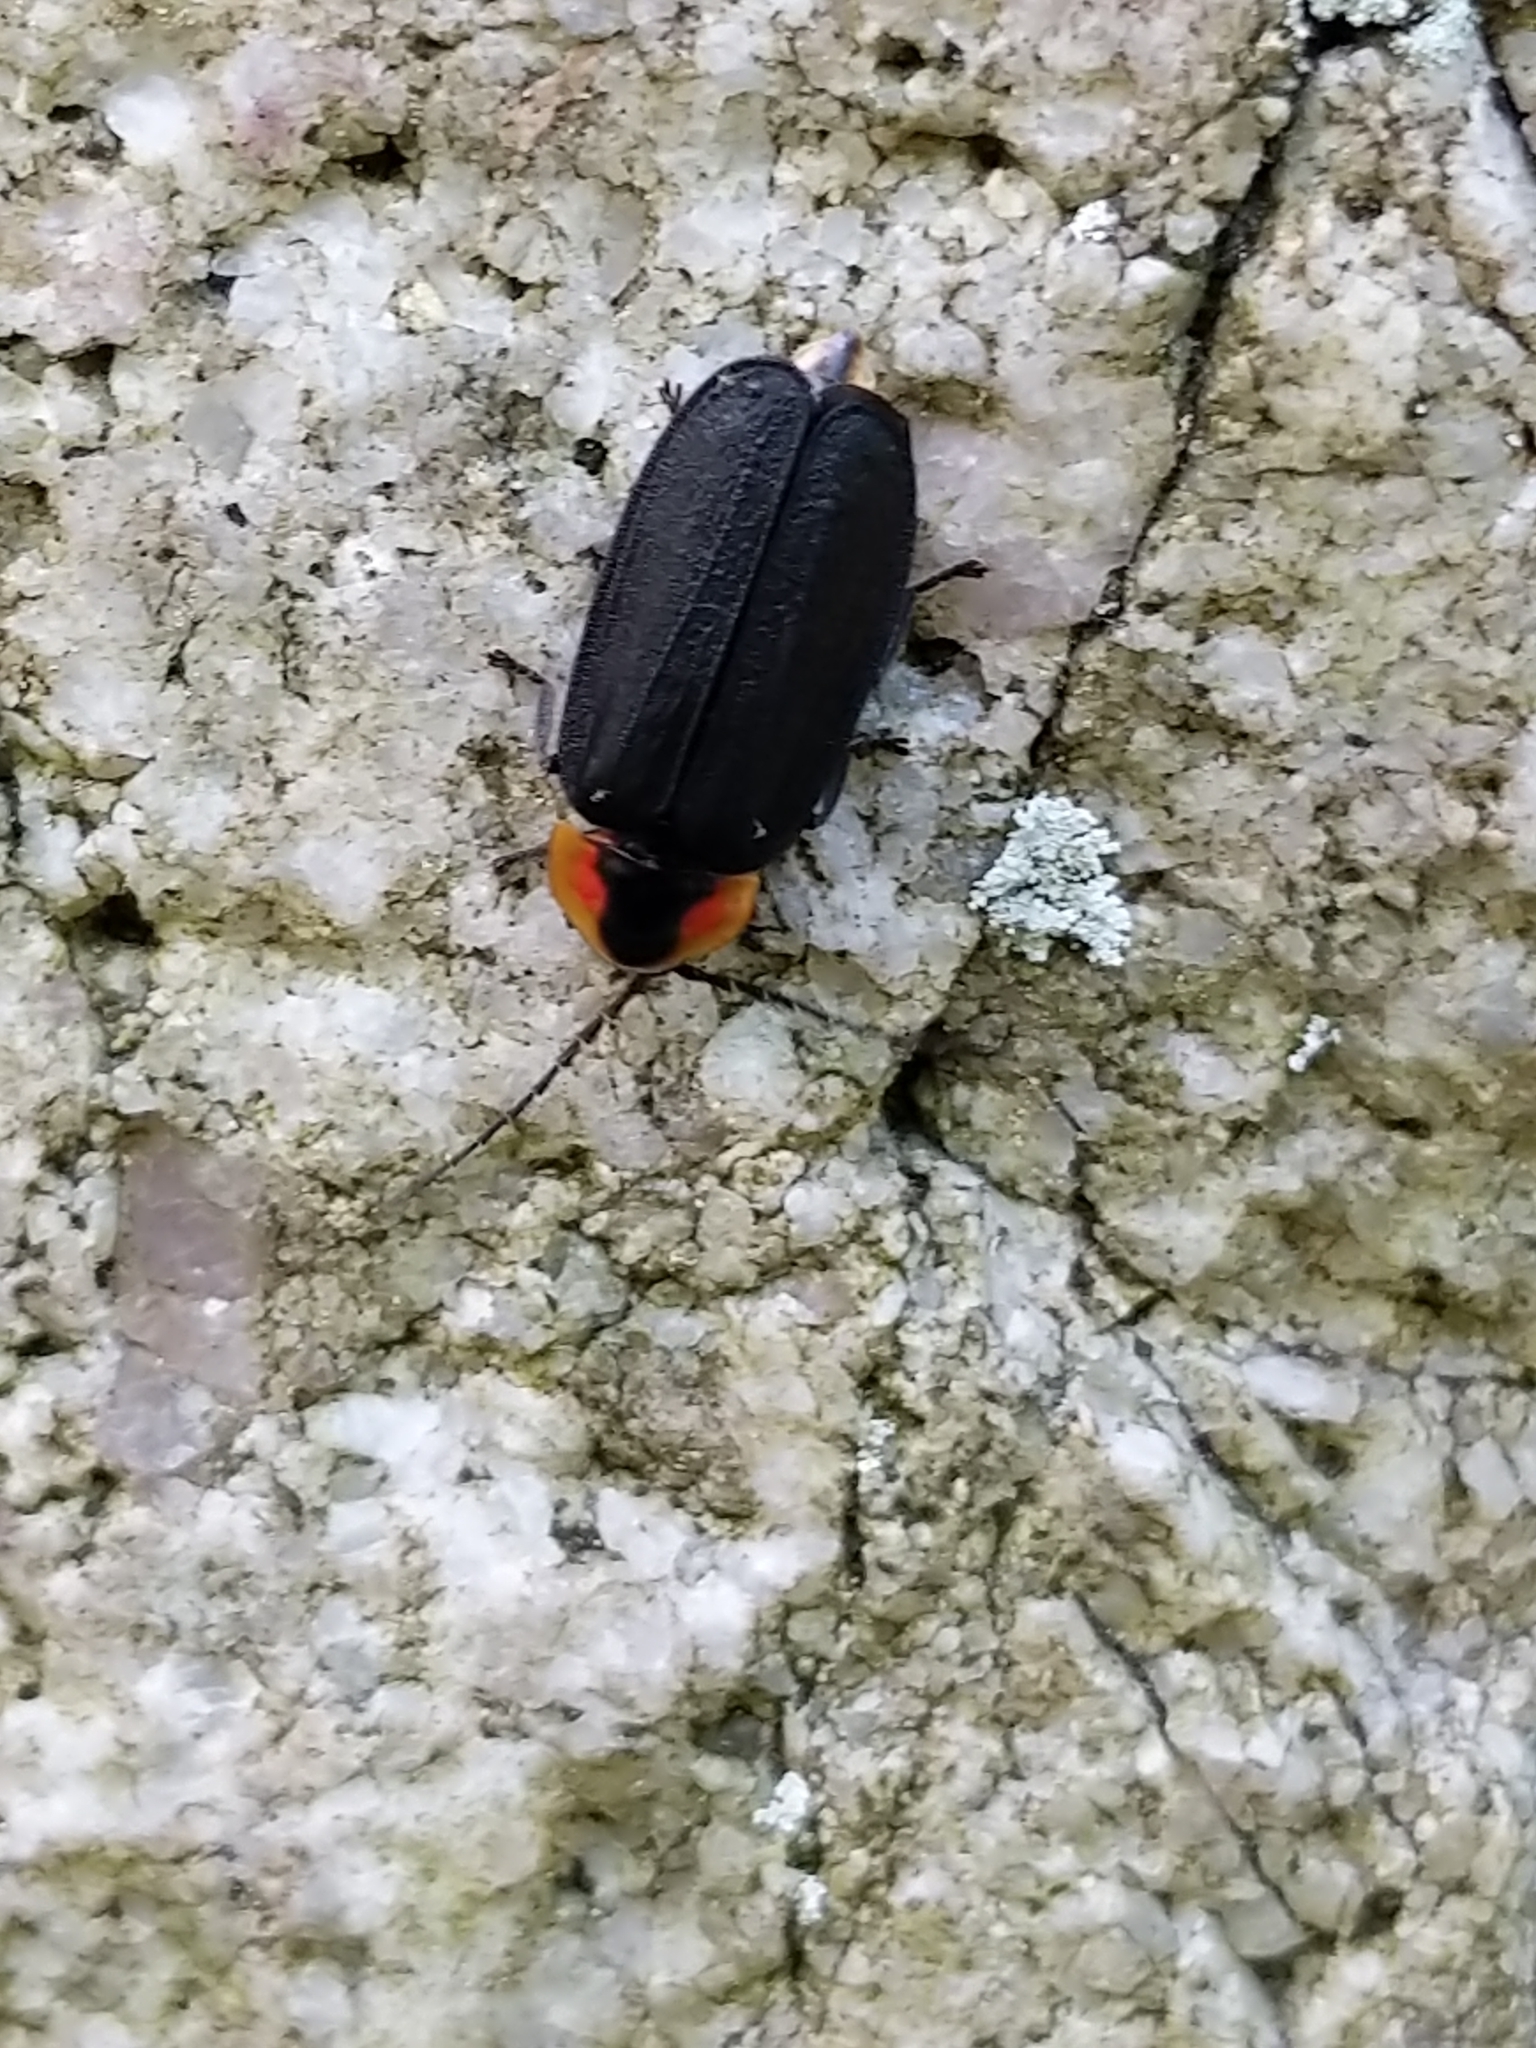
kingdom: Animalia
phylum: Arthropoda
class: Insecta
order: Coleoptera
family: Lampyridae
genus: Lucidota
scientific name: Lucidota atra
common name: Black firefly
